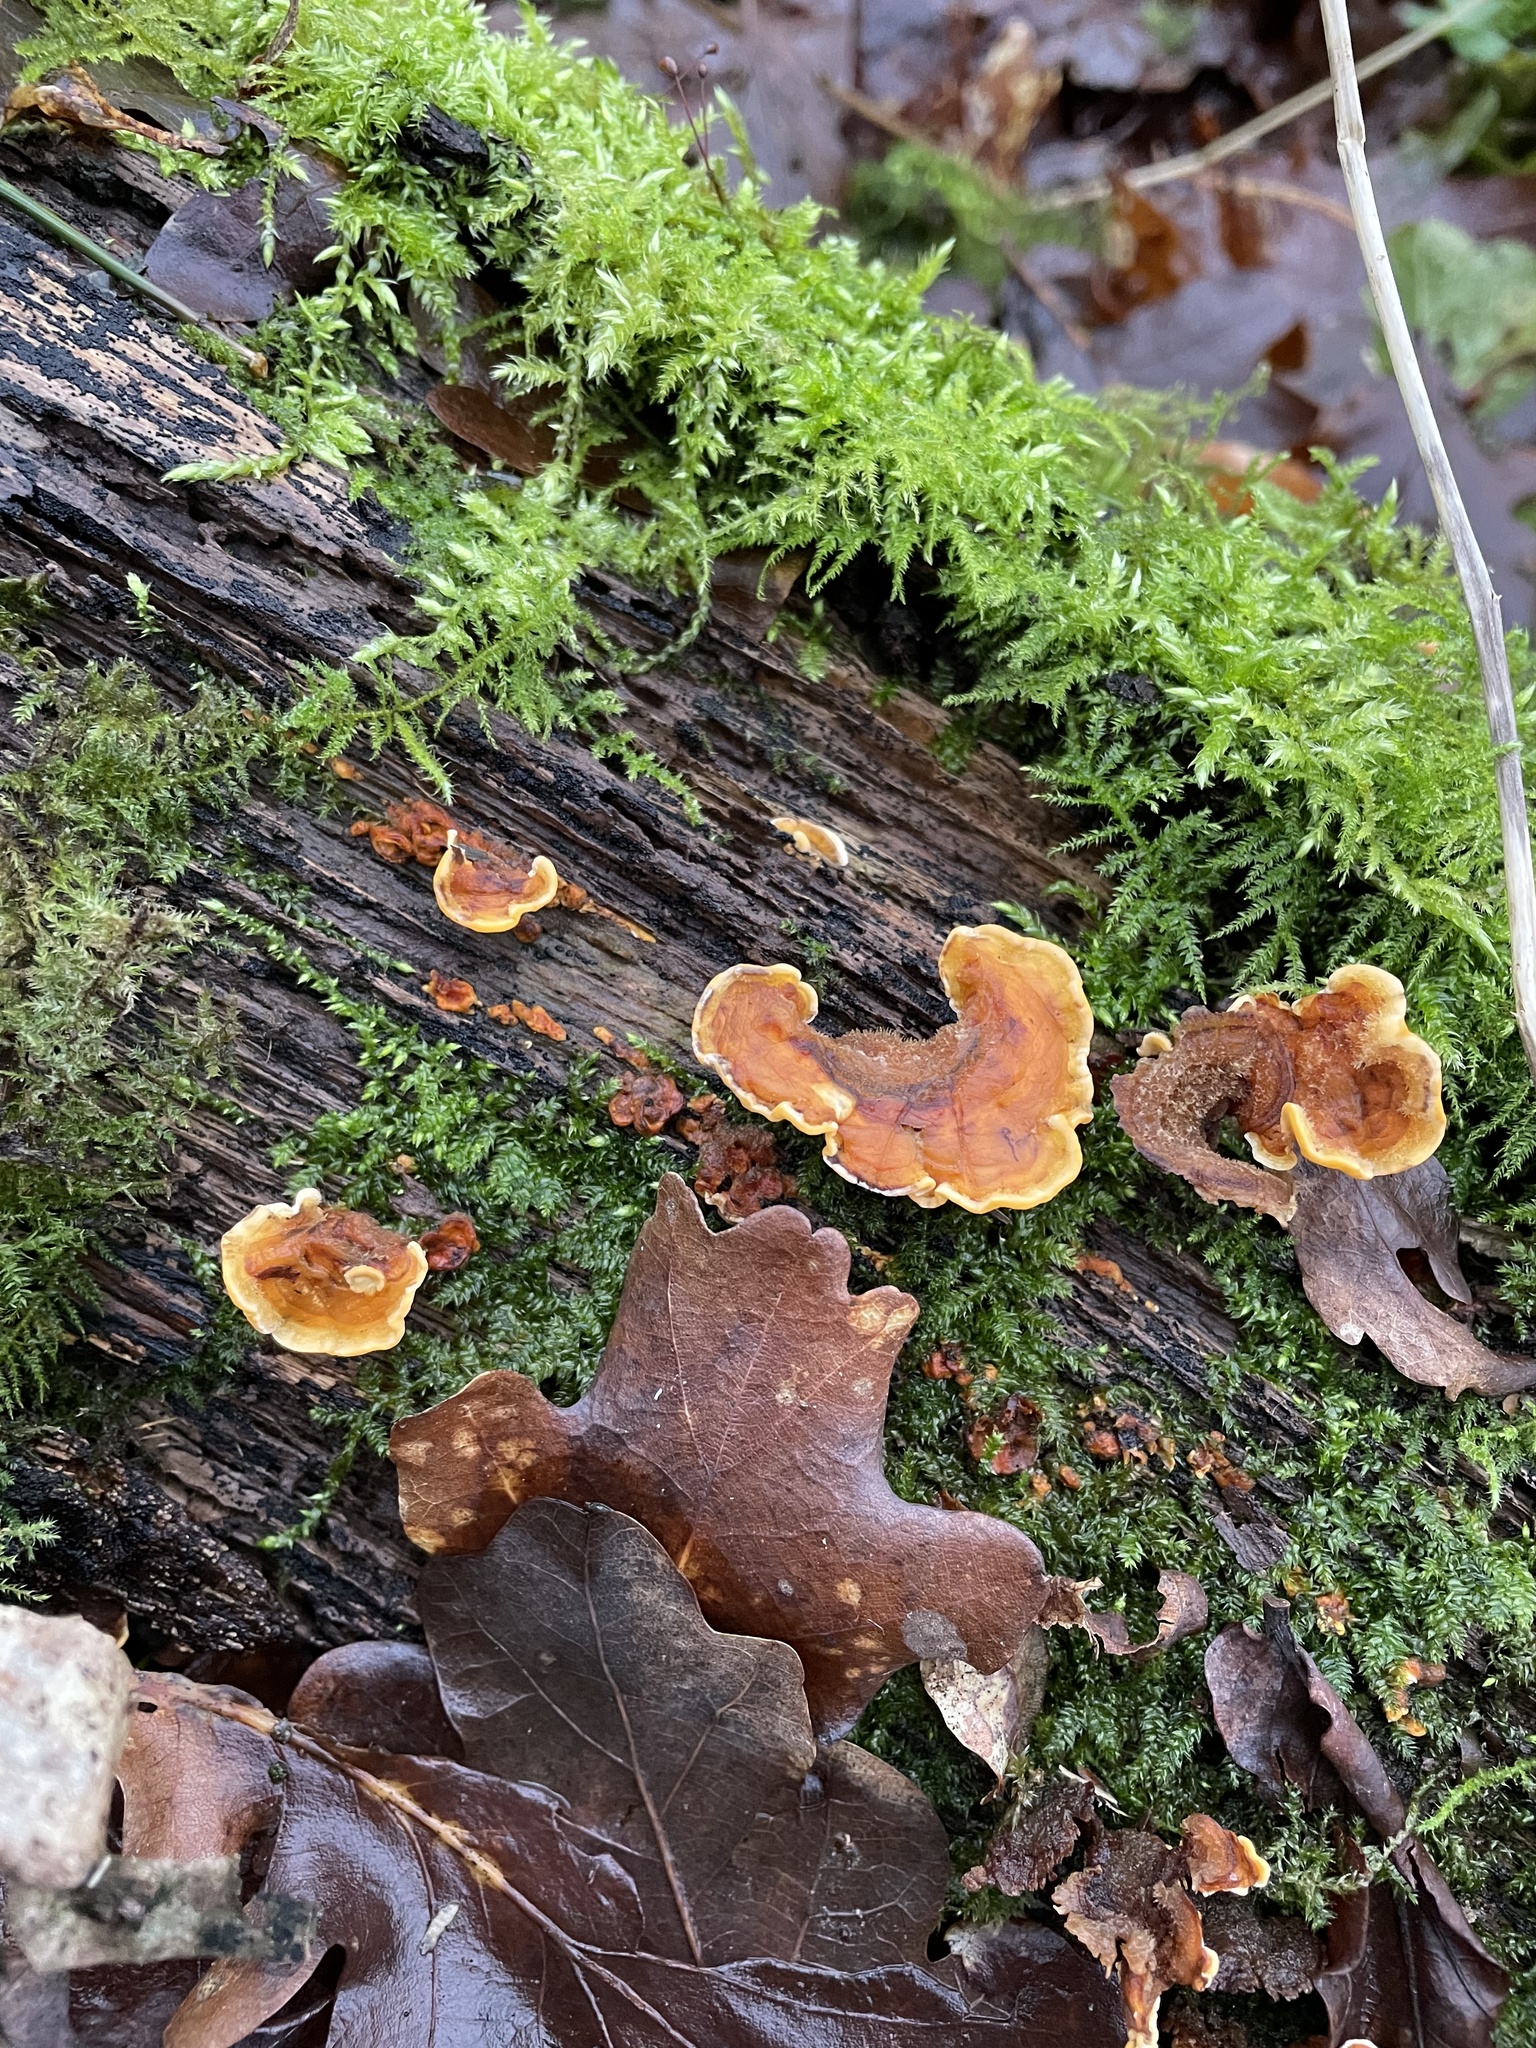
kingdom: Fungi
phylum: Basidiomycota
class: Agaricomycetes
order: Russulales
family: Stereaceae
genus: Stereum
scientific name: Stereum hirsutum
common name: Hairy curtain crust
